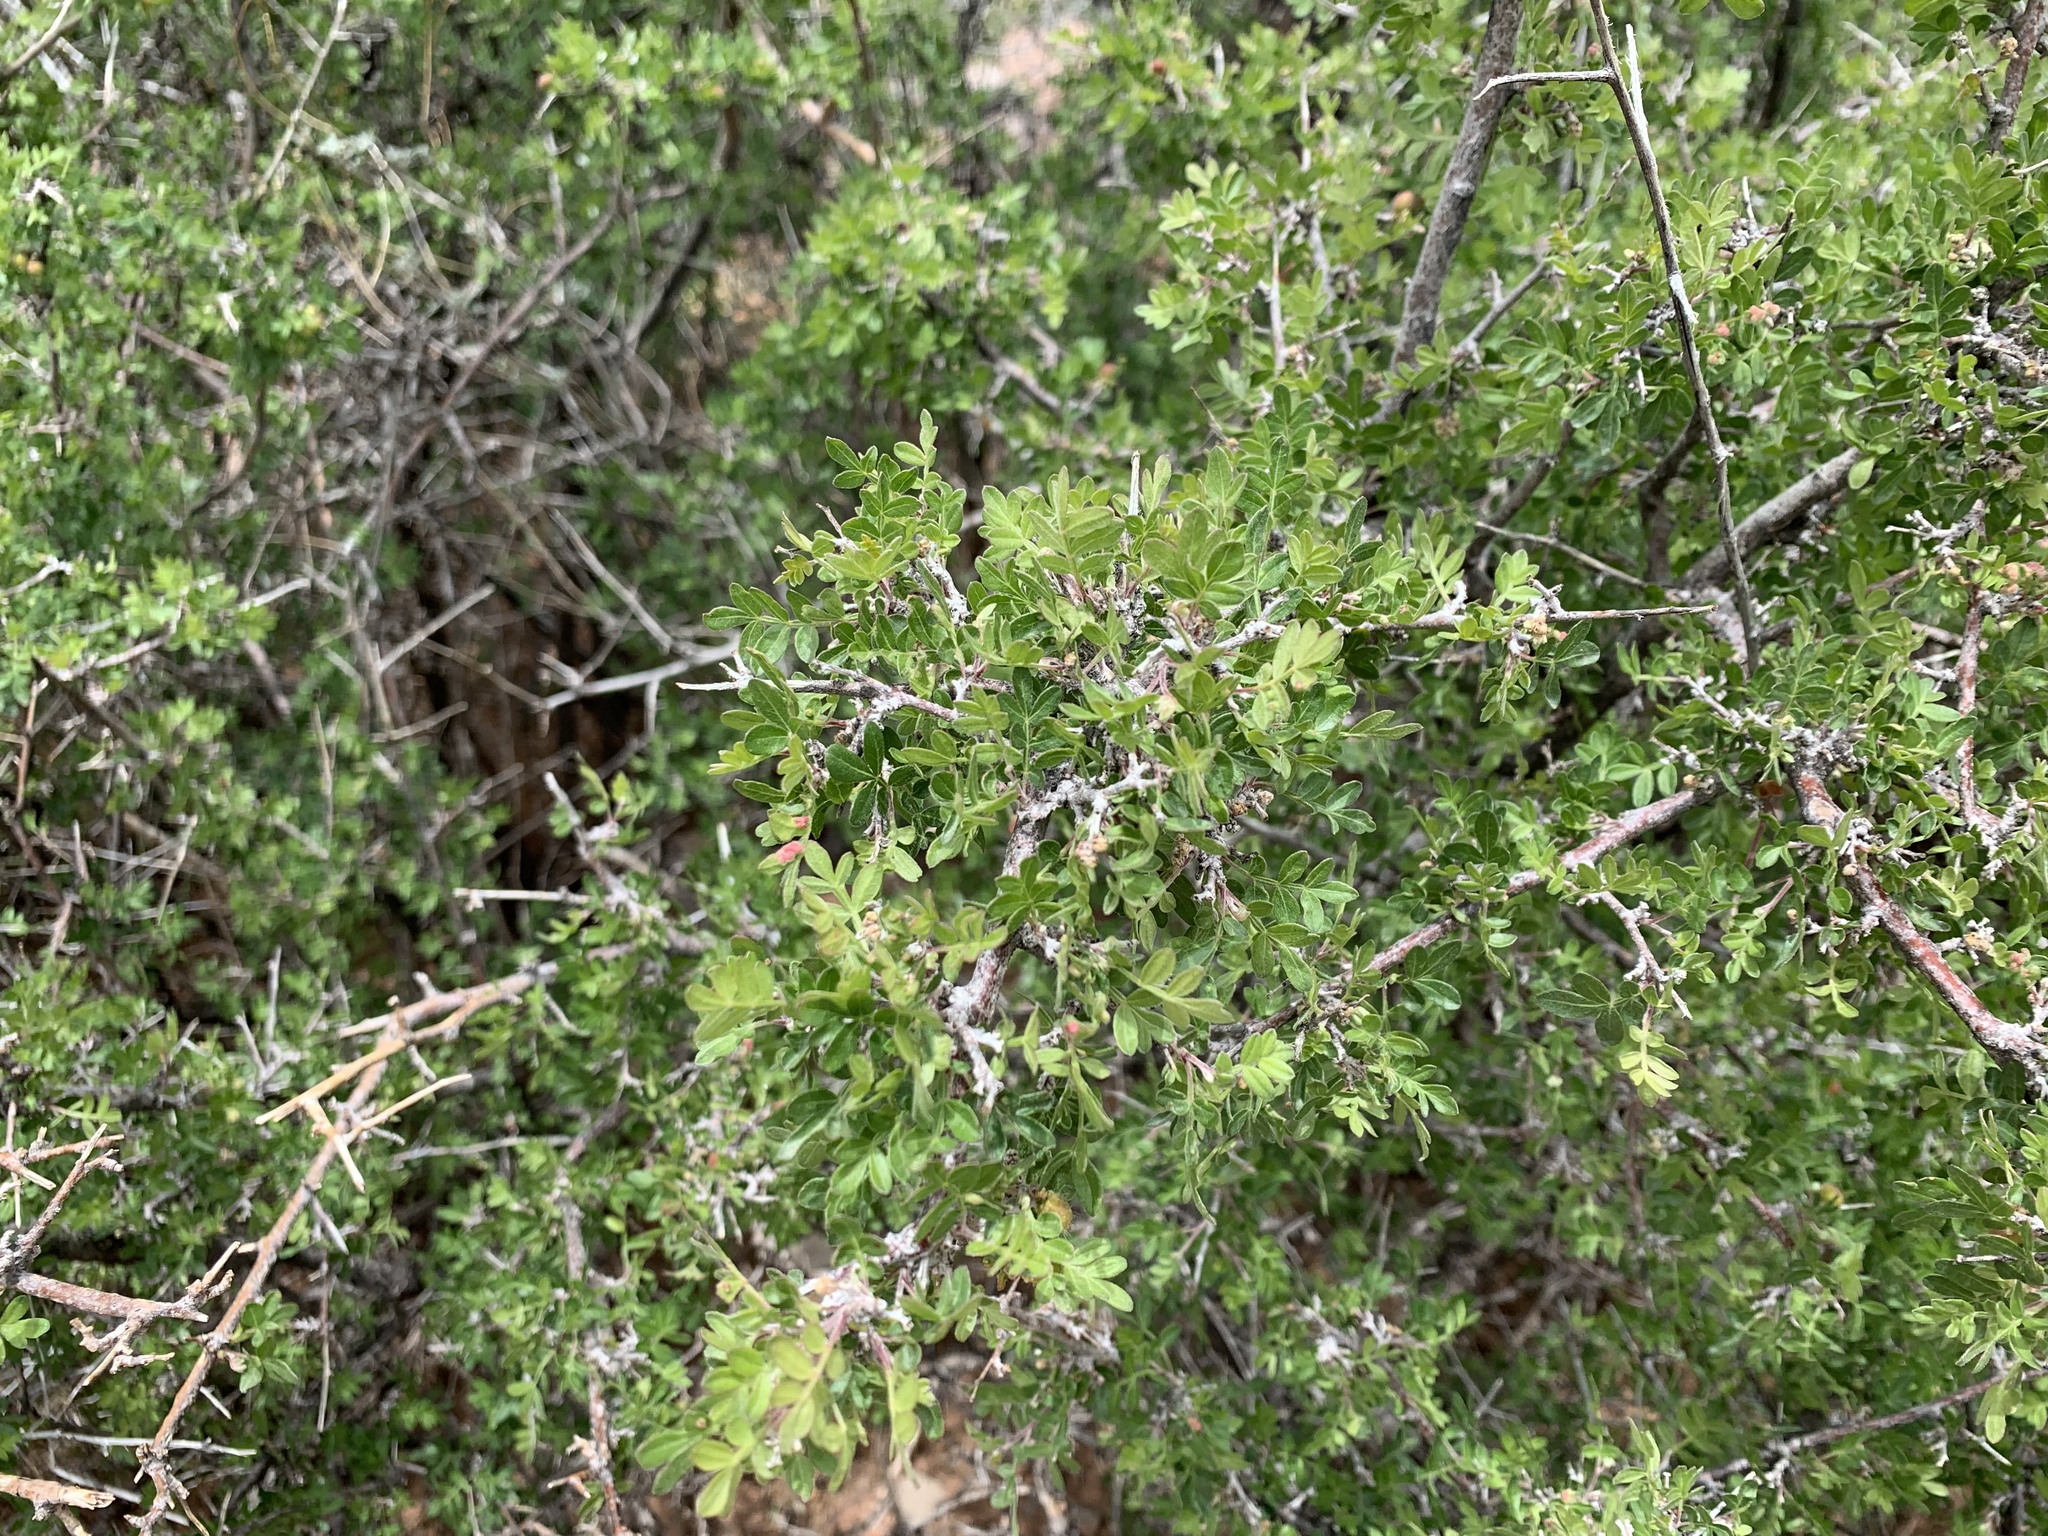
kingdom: Plantae
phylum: Tracheophyta
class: Magnoliopsida
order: Sapindales
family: Anacardiaceae
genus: Rhus
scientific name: Rhus microphylla
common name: Desert sumac
